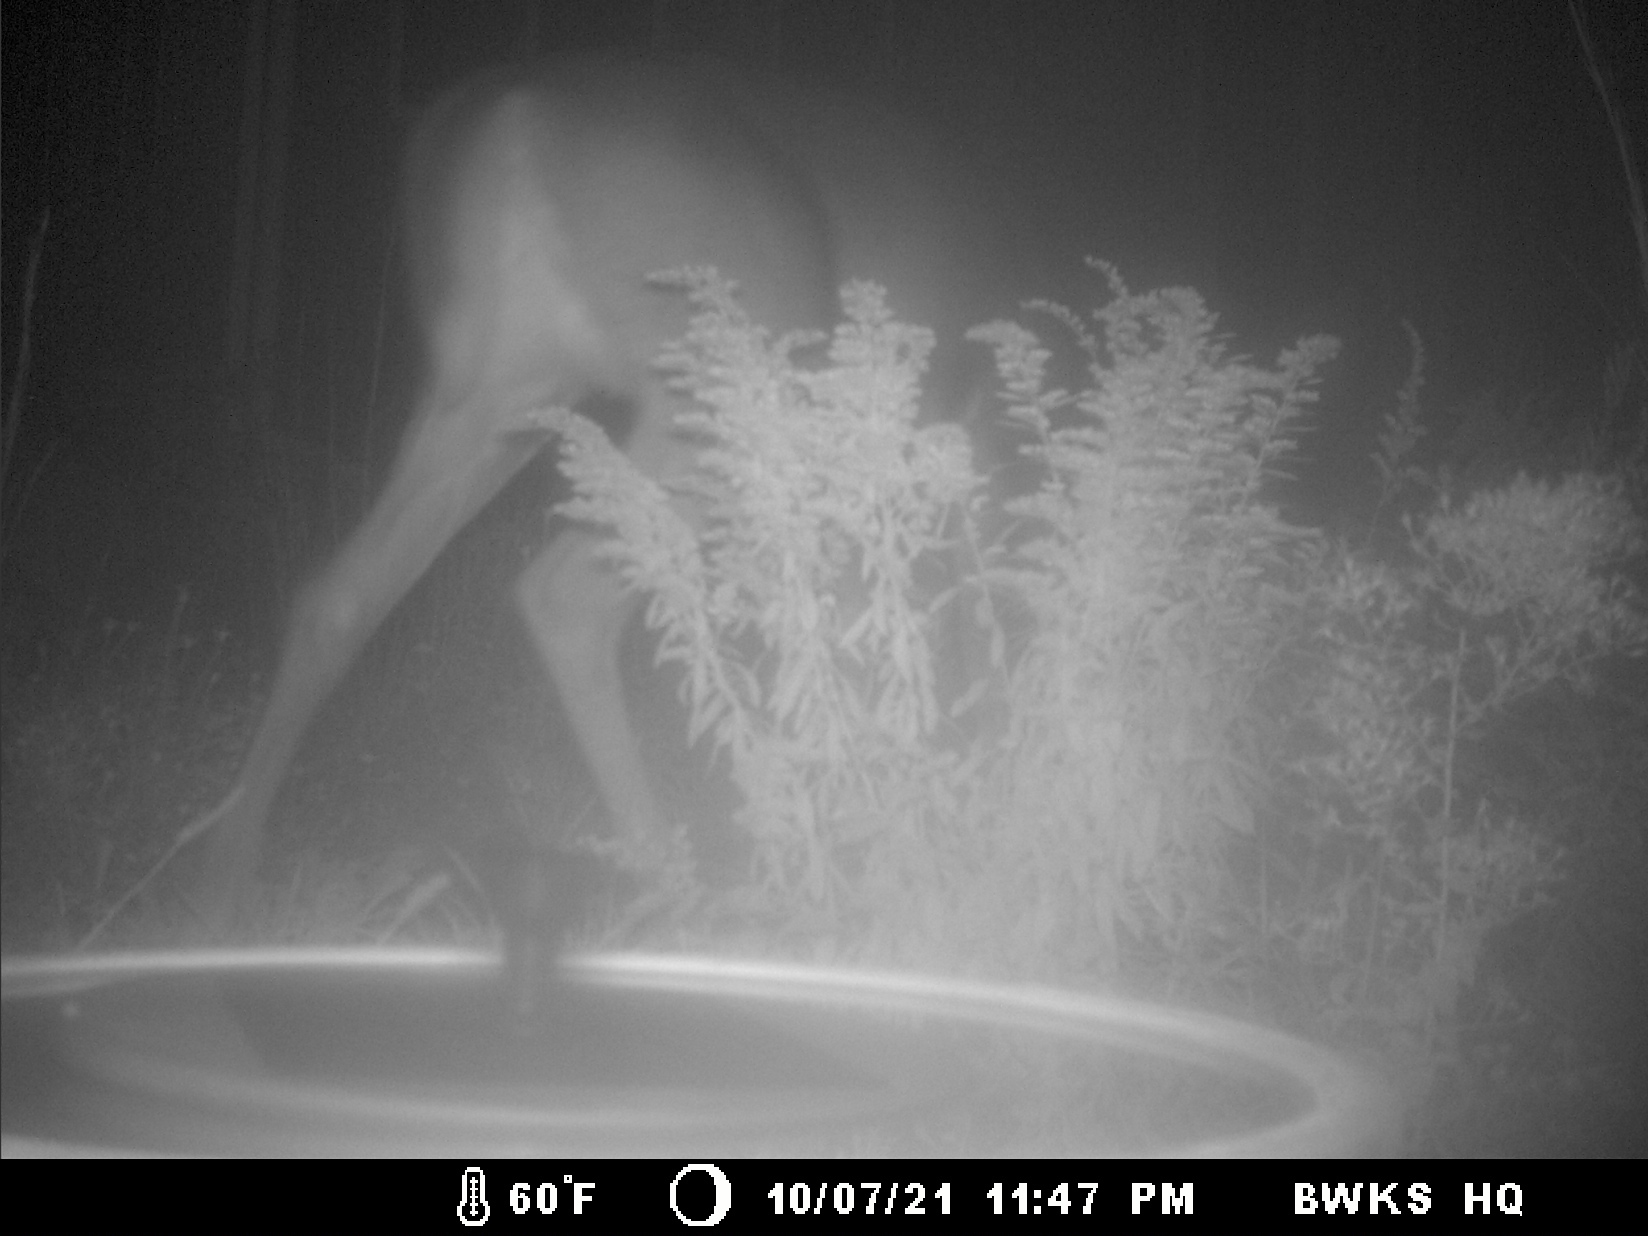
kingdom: Animalia
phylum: Chordata
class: Mammalia
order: Artiodactyla
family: Cervidae
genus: Odocoileus
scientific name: Odocoileus virginianus
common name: White-tailed deer
